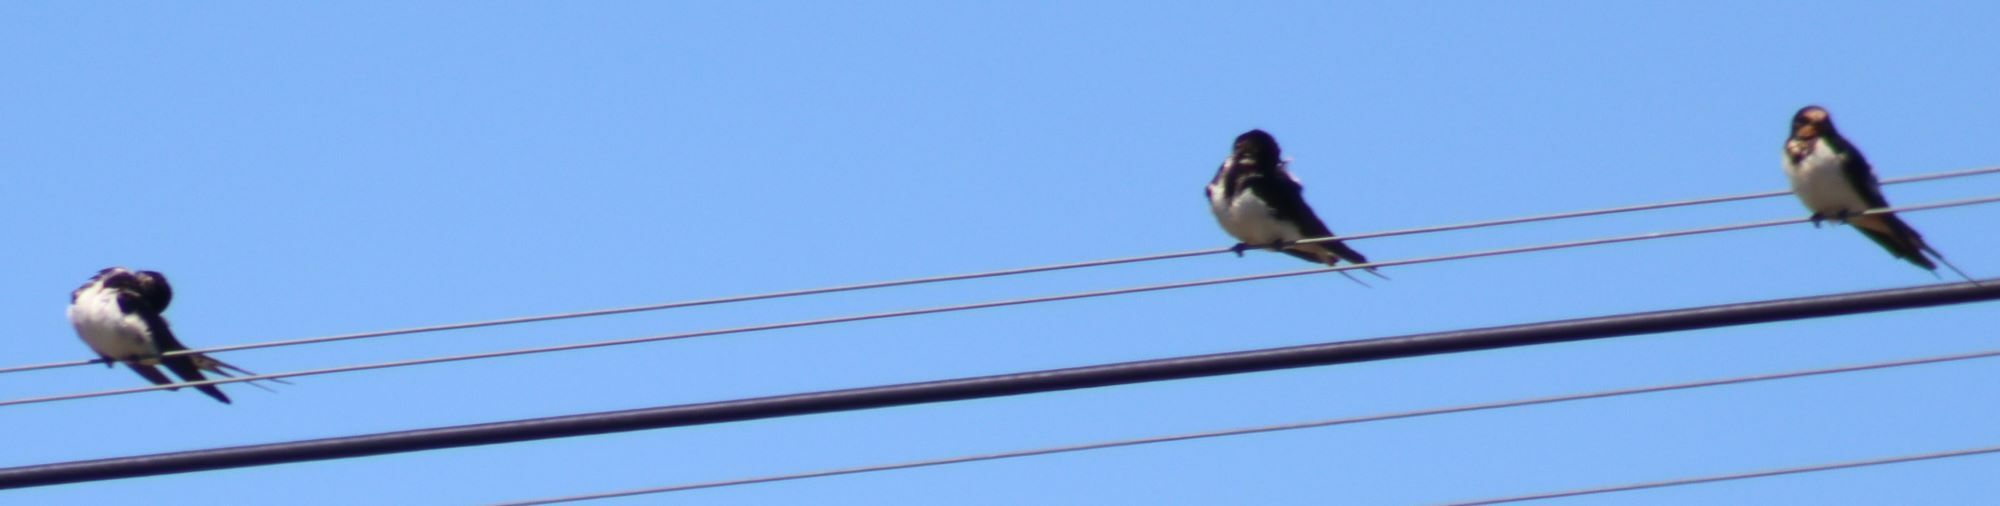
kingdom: Animalia
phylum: Chordata
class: Aves
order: Passeriformes
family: Hirundinidae
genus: Hirundo
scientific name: Hirundo rustica
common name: Barn swallow
